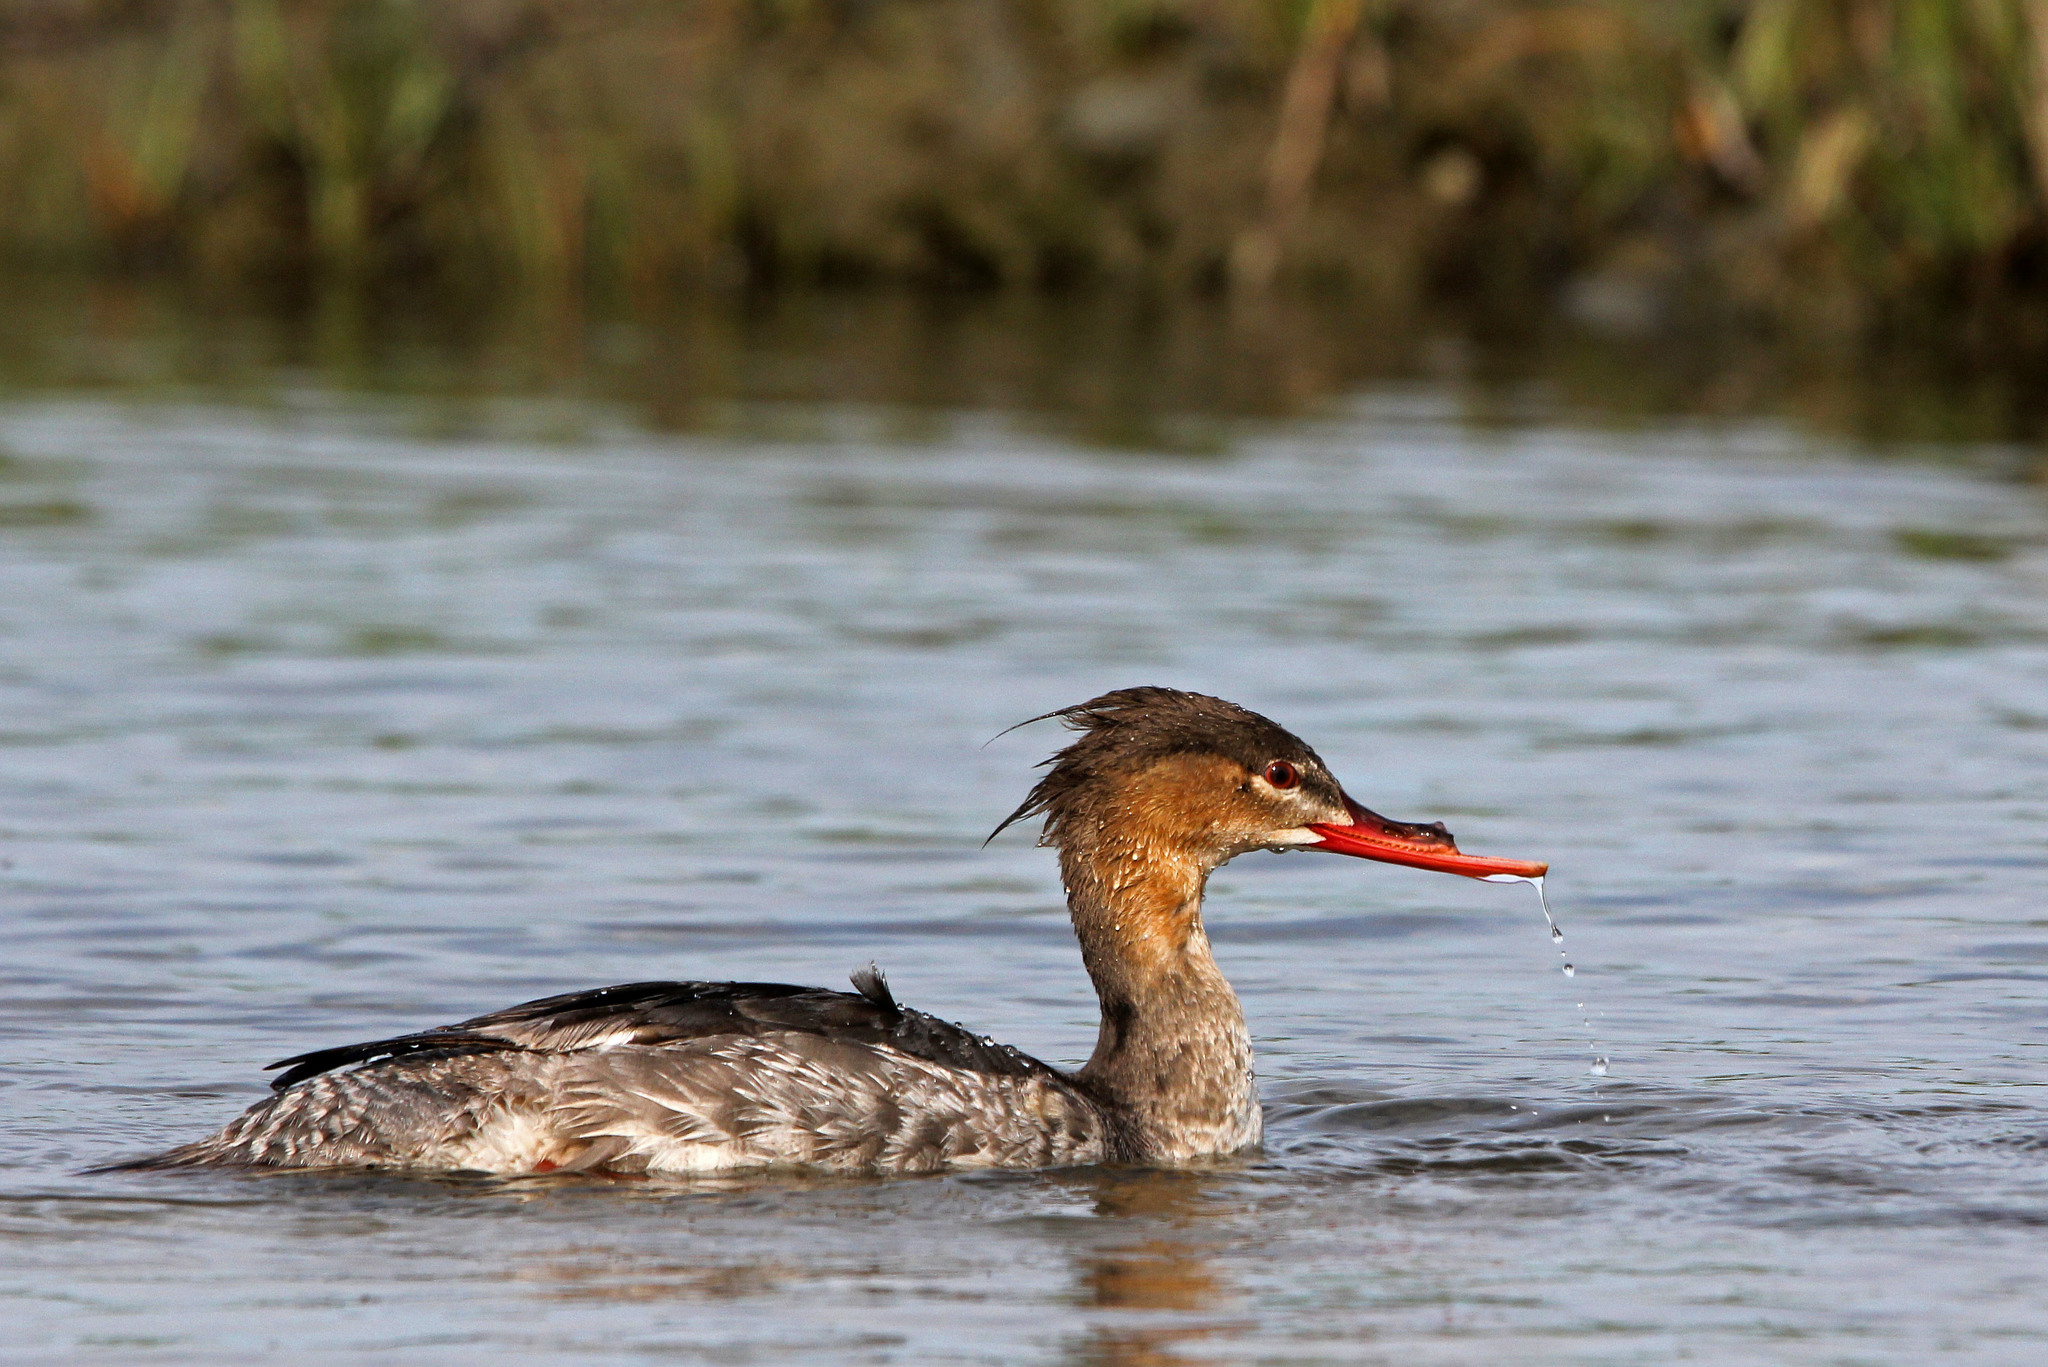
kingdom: Animalia
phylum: Chordata
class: Aves
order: Anseriformes
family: Anatidae
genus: Mergus
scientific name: Mergus serrator
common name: Red-breasted merganser
